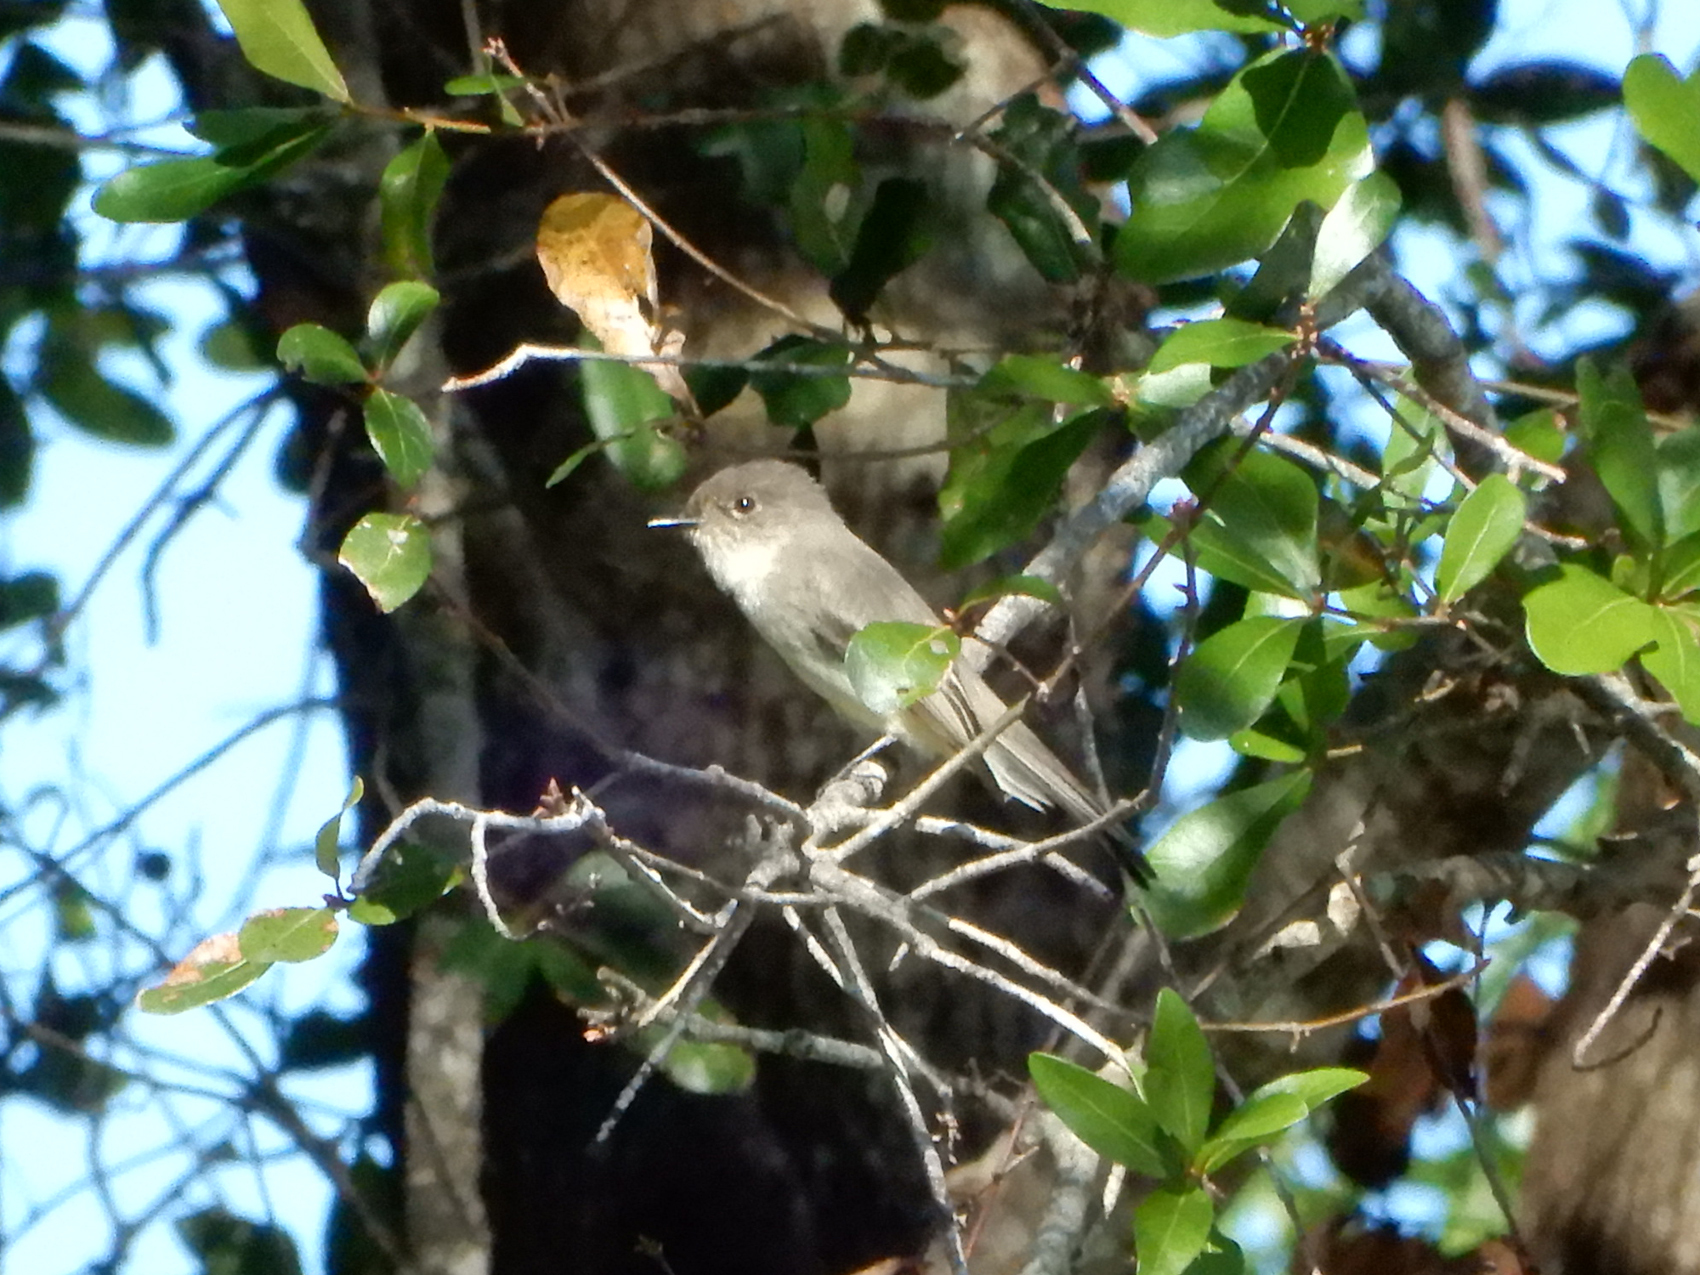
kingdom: Animalia
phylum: Chordata
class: Aves
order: Passeriformes
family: Tyrannidae
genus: Sayornis
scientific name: Sayornis phoebe
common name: Eastern phoebe
